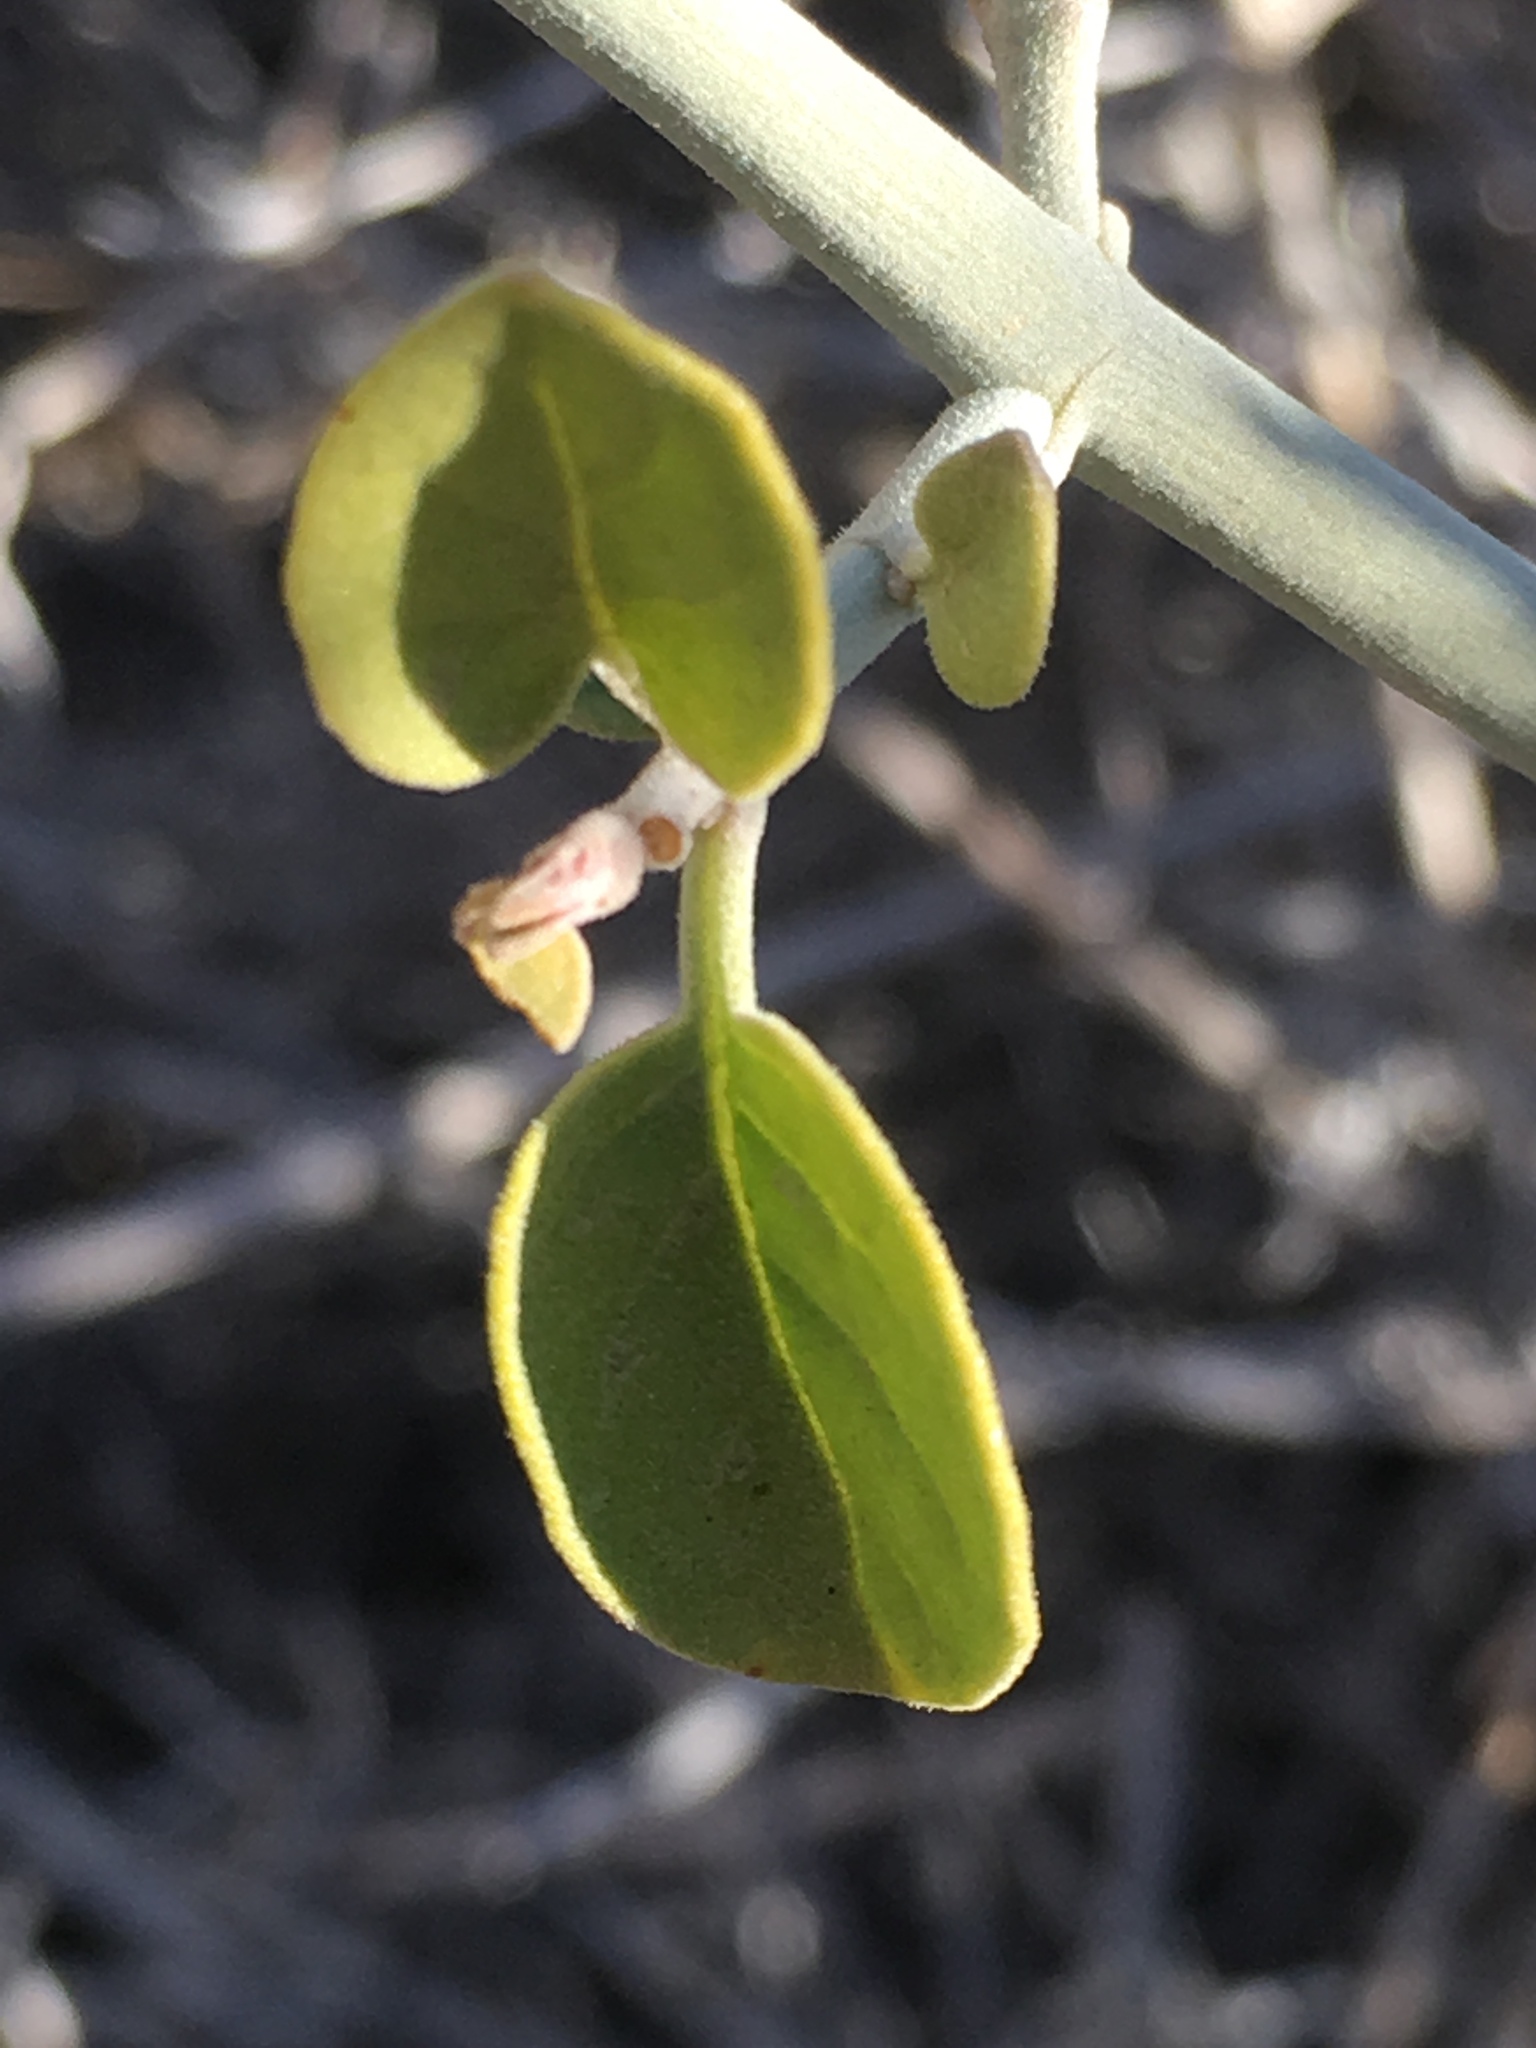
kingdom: Plantae
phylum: Tracheophyta
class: Magnoliopsida
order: Lamiales
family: Acanthaceae
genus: Justicia
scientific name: Justicia californica
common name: Chuparosa-honeysuckle
